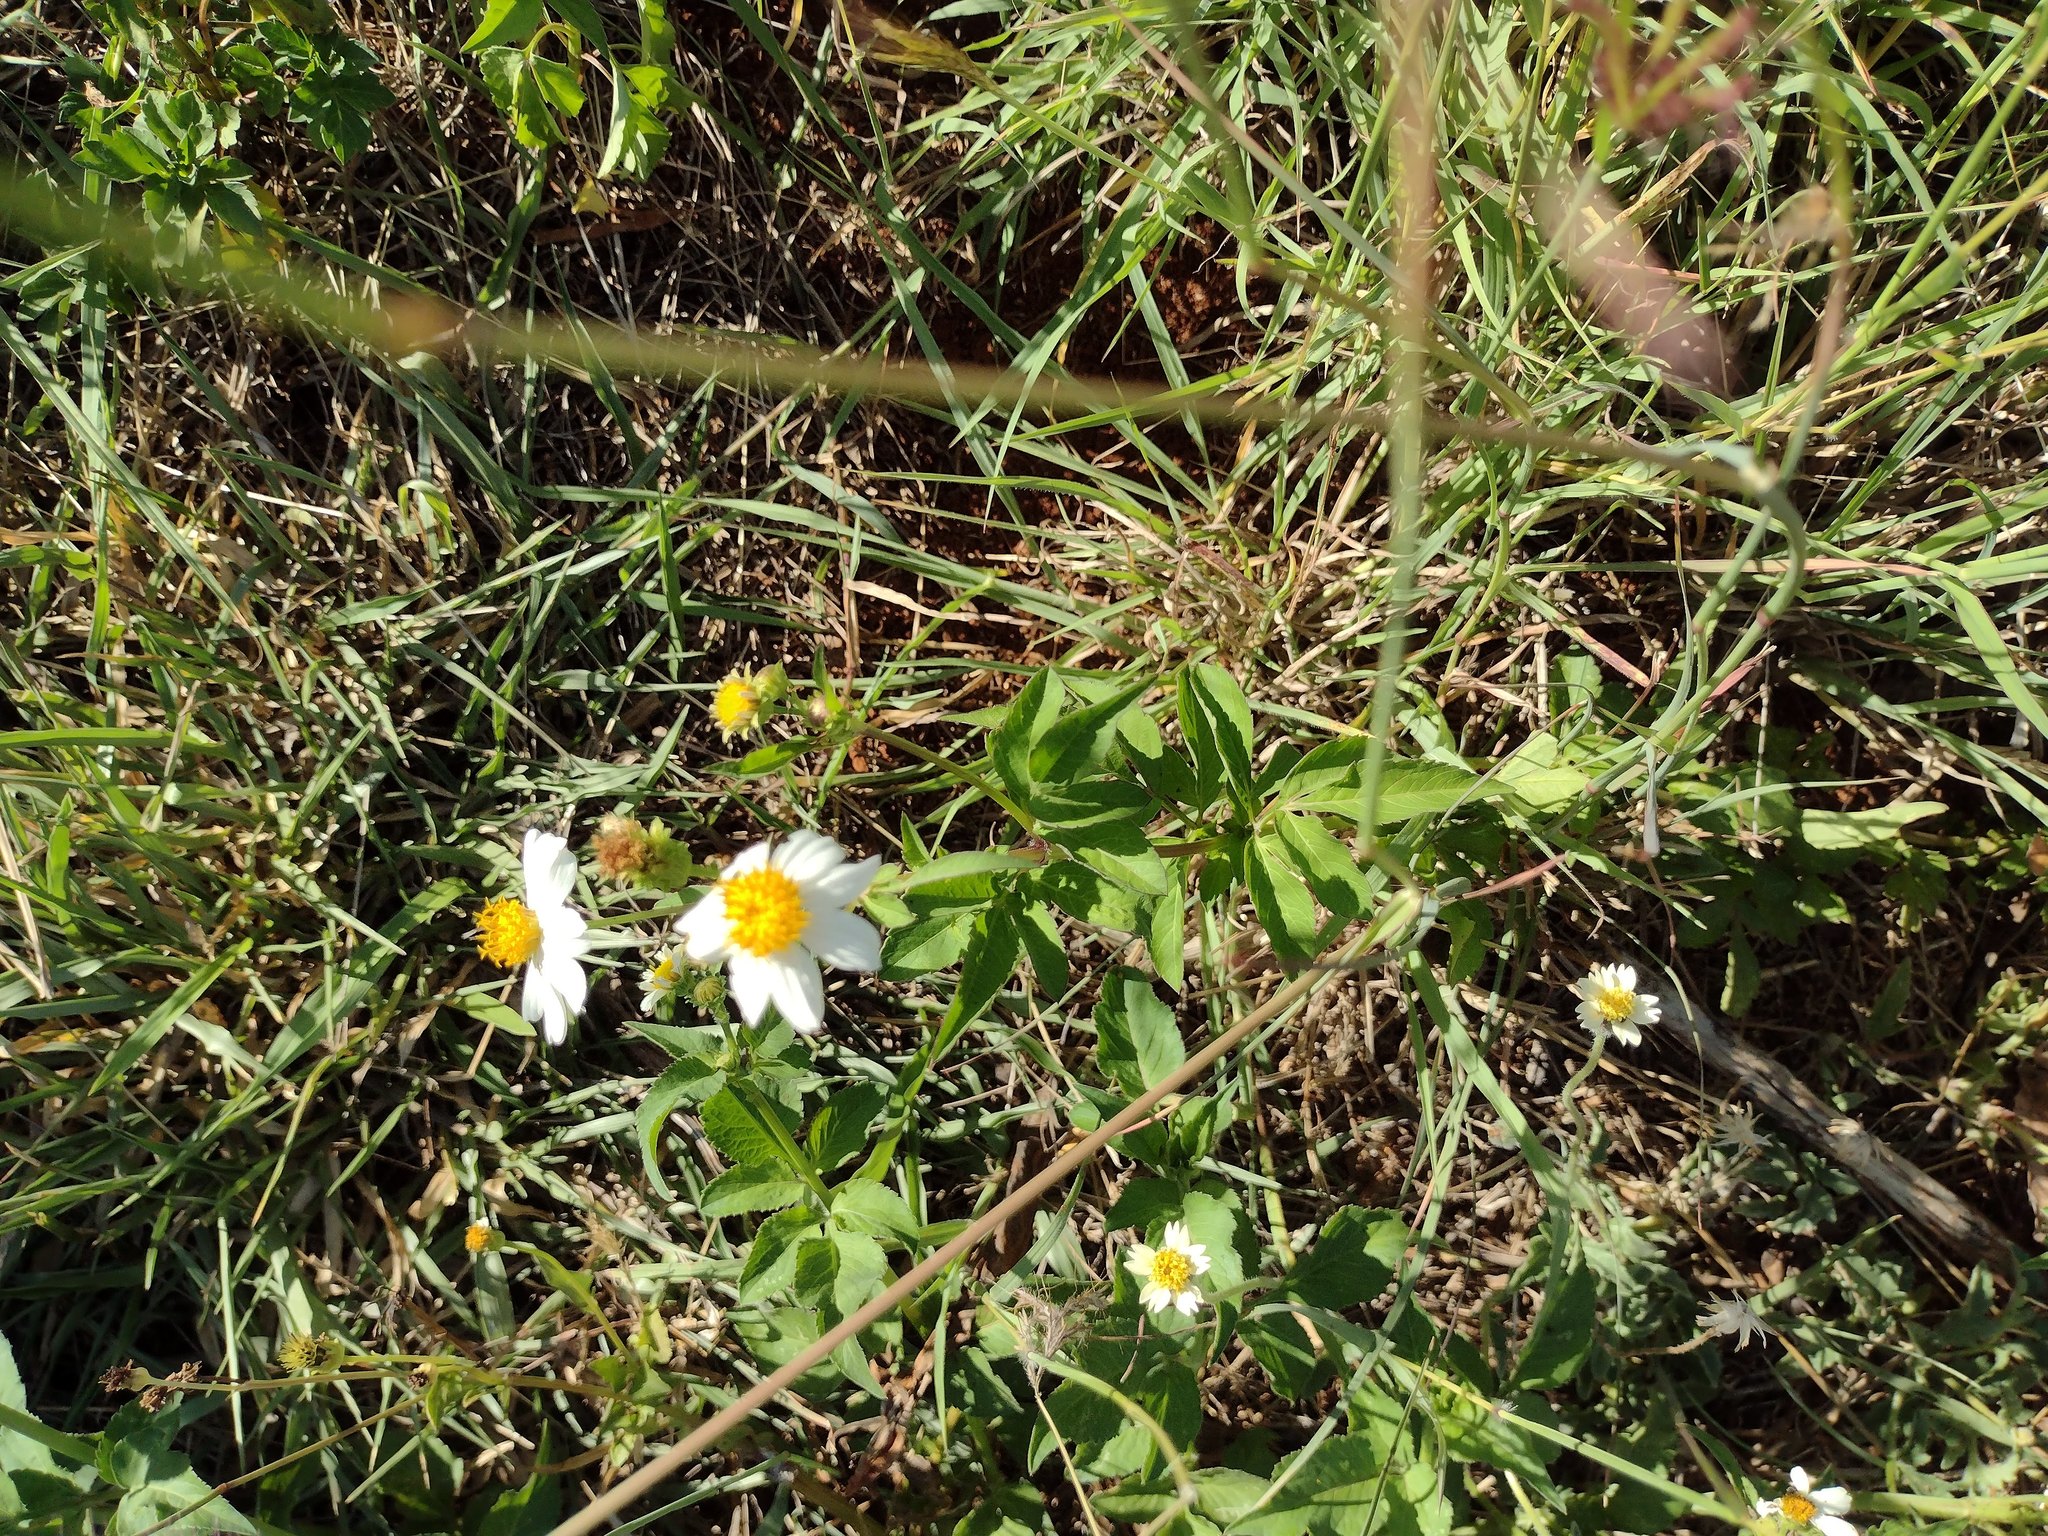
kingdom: Plantae
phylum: Tracheophyta
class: Magnoliopsida
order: Asterales
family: Asteraceae
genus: Bidens
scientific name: Bidens alba
